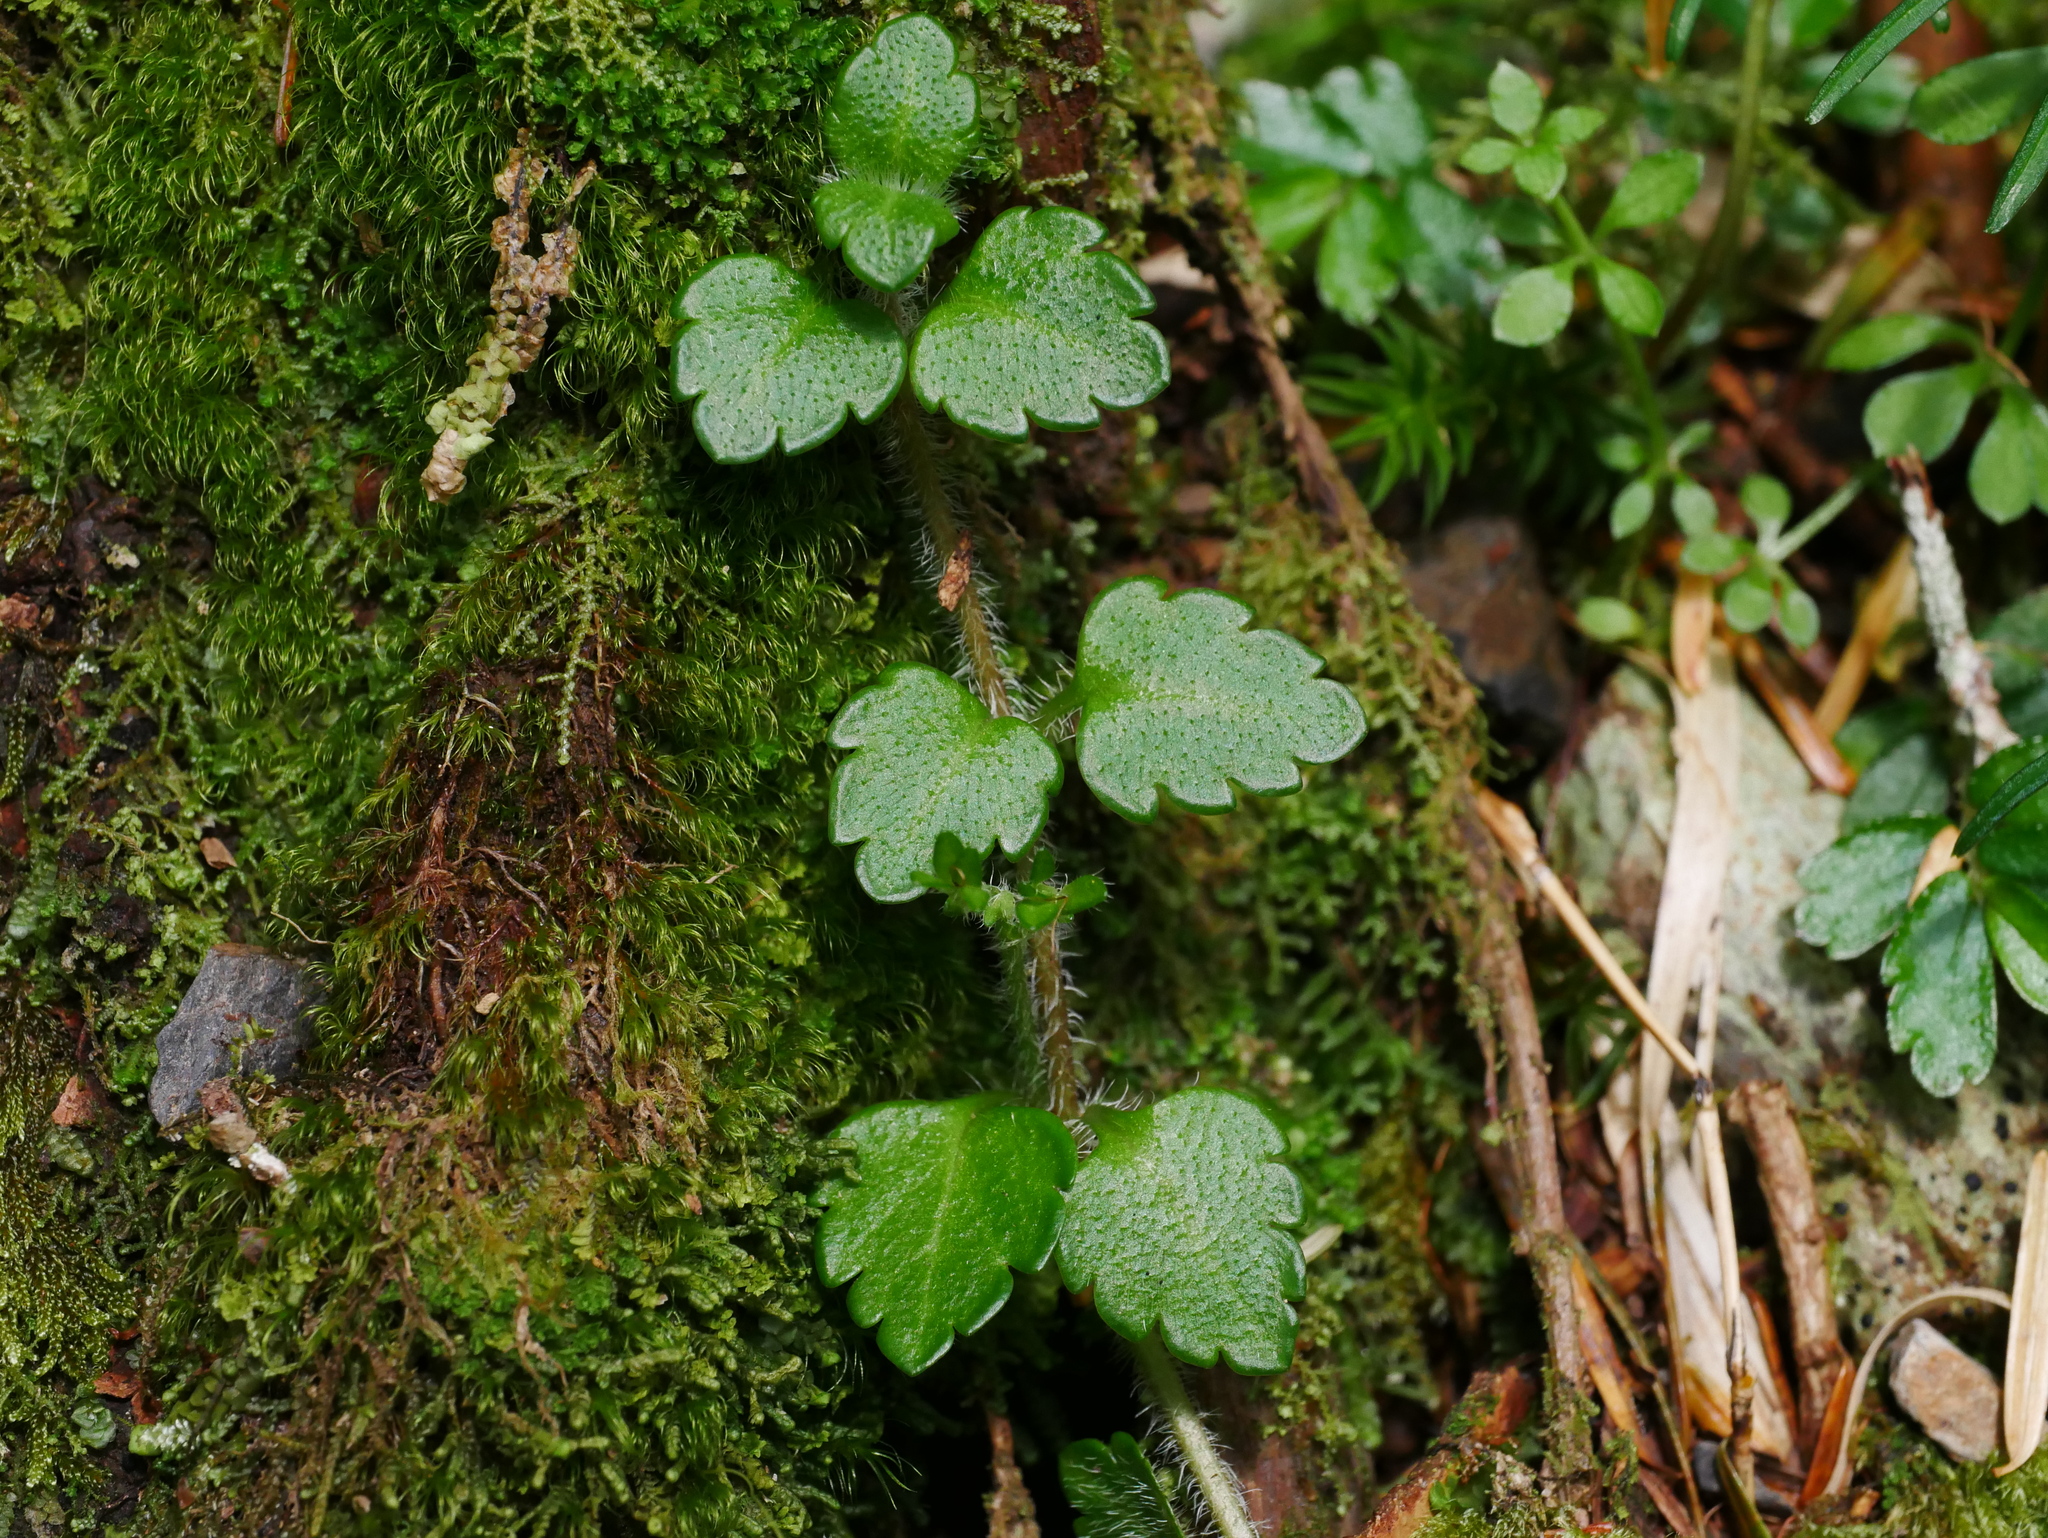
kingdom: Plantae
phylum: Tracheophyta
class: Magnoliopsida
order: Lamiales
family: Plantaginaceae
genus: Veronica
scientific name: Veronica oligosperma
